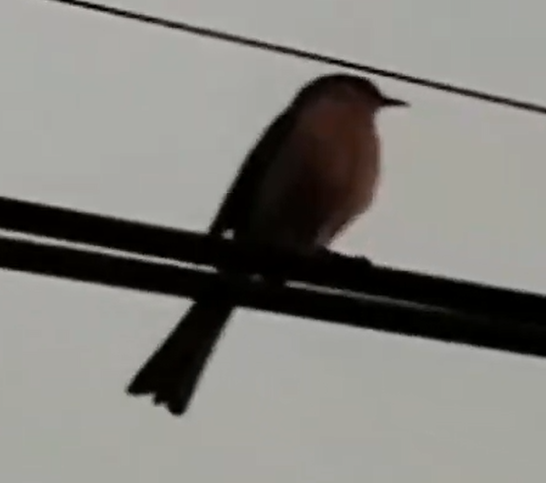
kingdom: Animalia
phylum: Chordata
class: Aves
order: Passeriformes
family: Mimidae
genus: Mimus
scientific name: Mimus polyglottos
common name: Northern mockingbird
